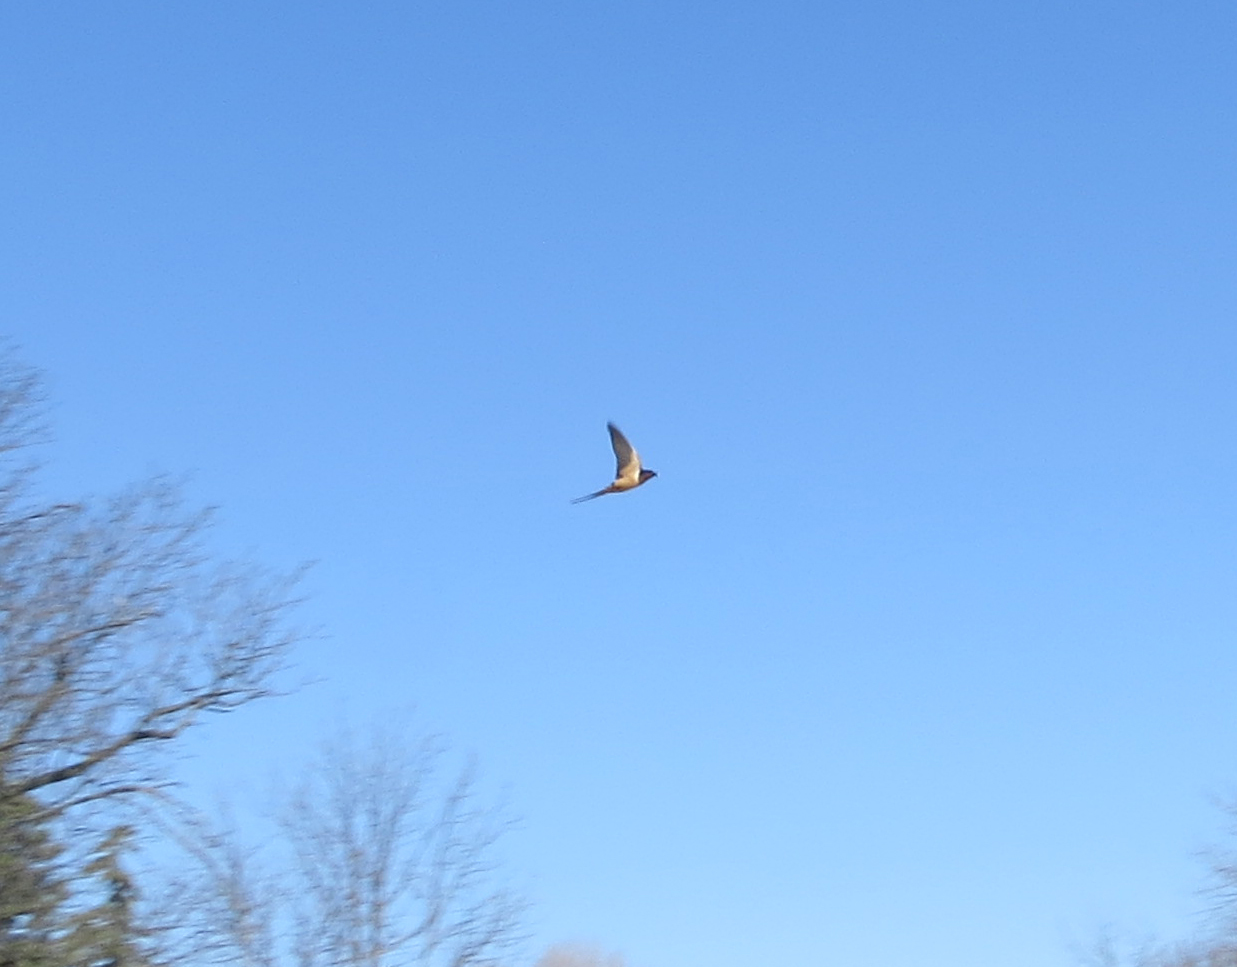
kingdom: Animalia
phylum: Chordata
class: Aves
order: Passeriformes
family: Hirundinidae
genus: Hirundo
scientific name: Hirundo rustica
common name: Barn swallow
